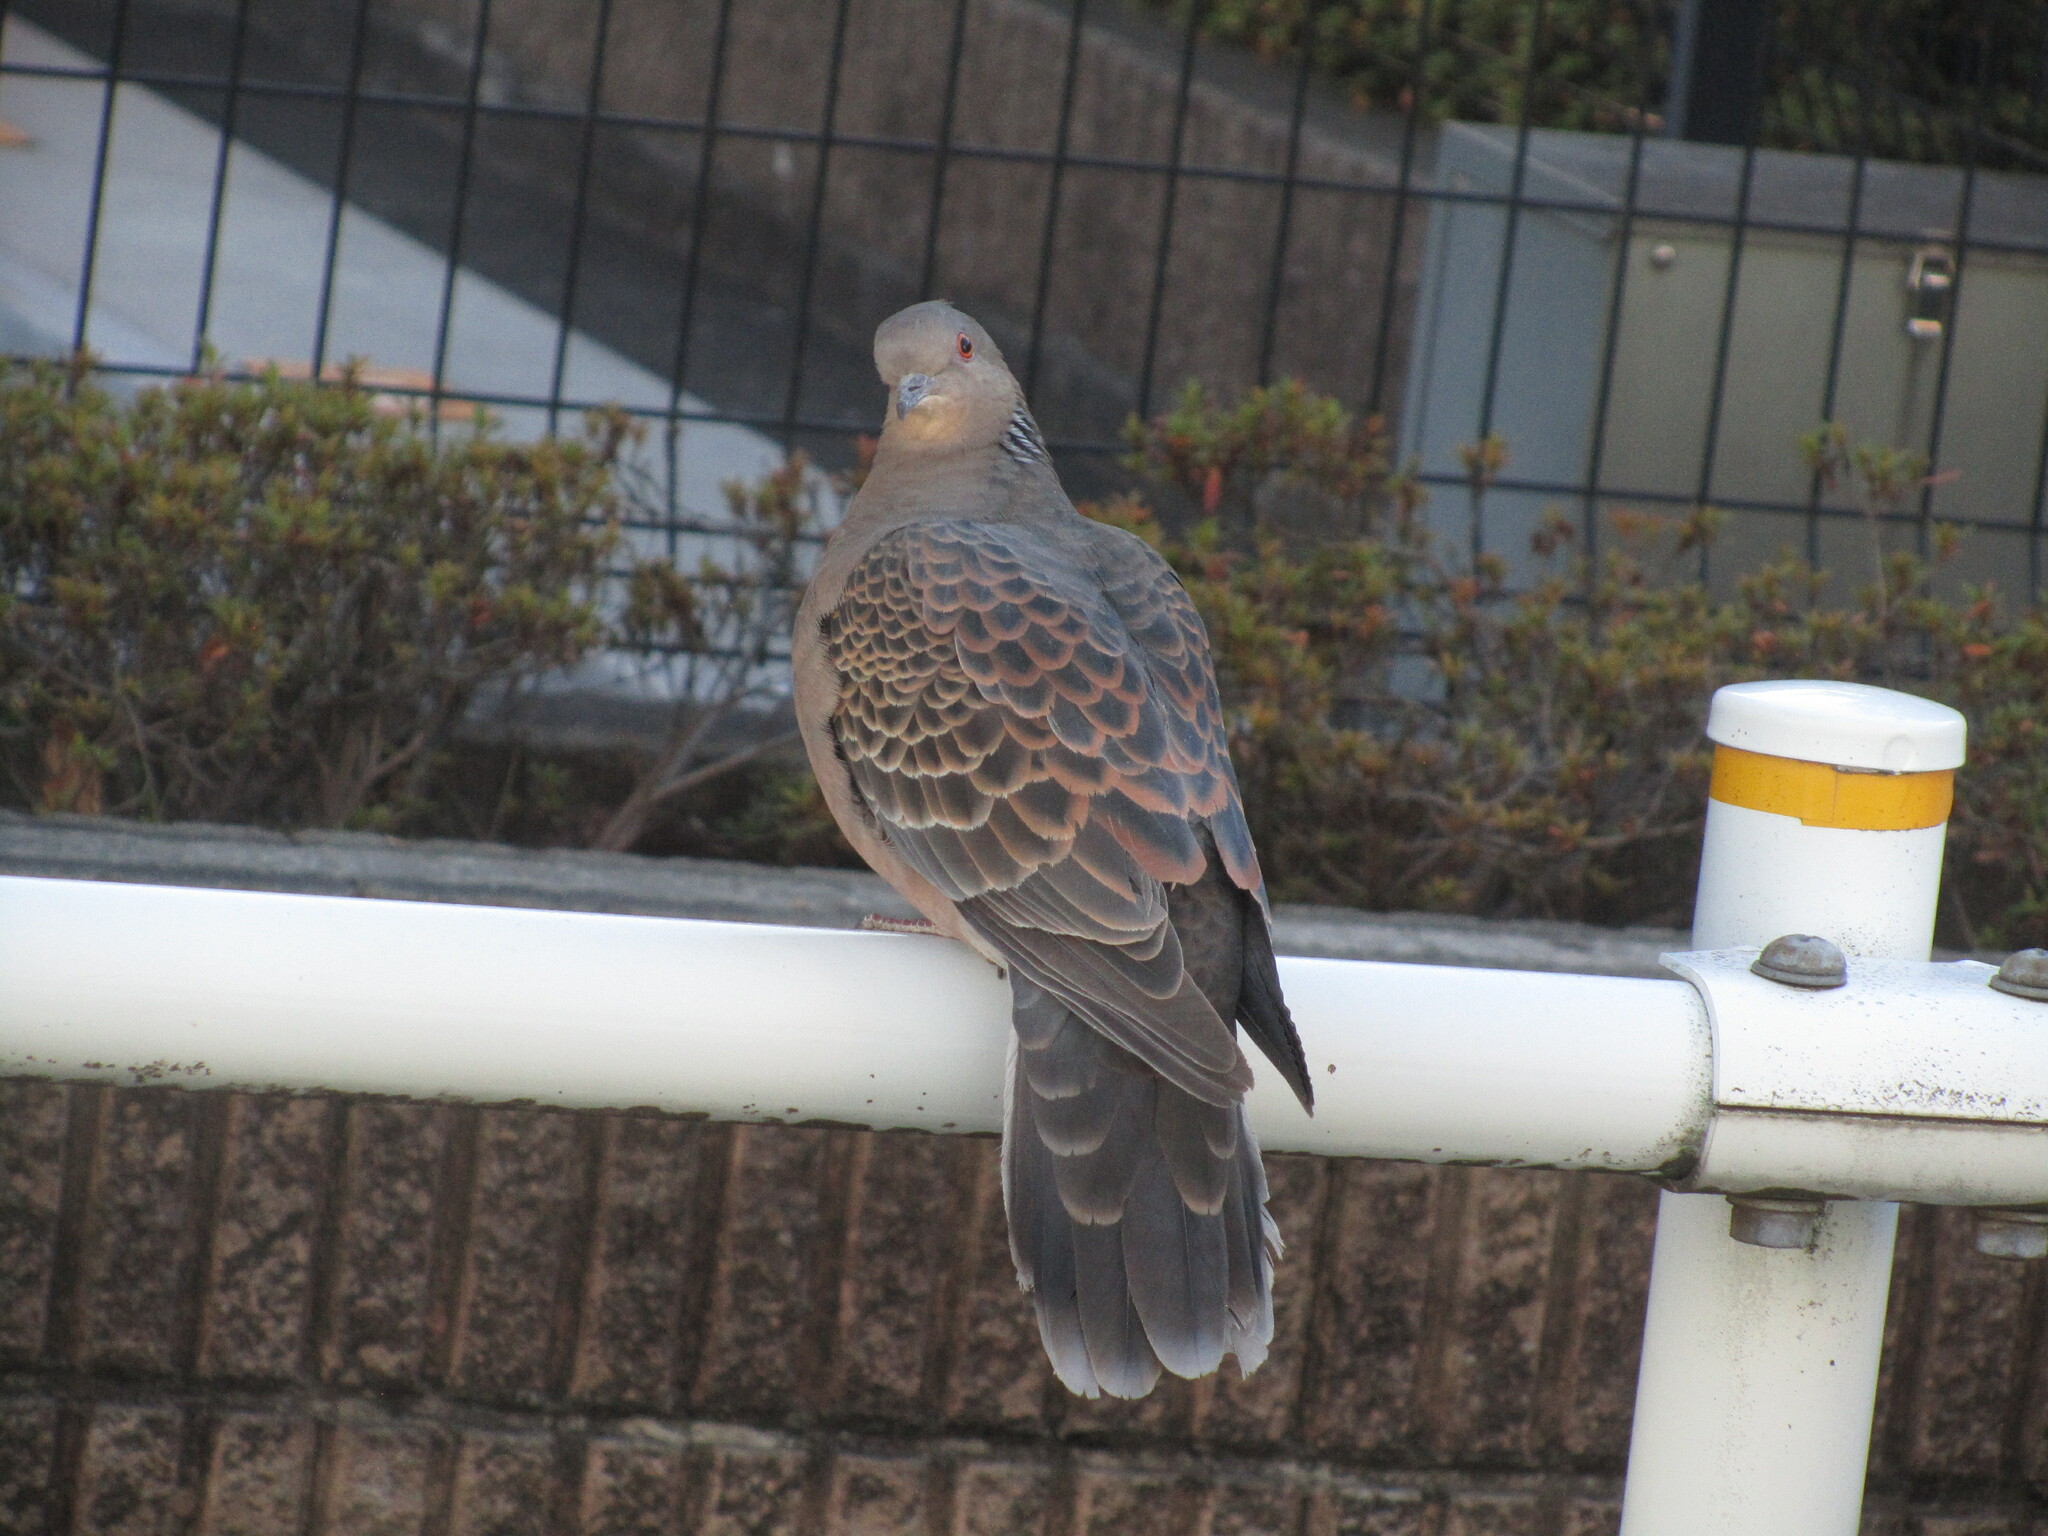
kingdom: Animalia
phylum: Chordata
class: Aves
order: Columbiformes
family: Columbidae
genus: Streptopelia
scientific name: Streptopelia orientalis
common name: Oriental turtle dove
